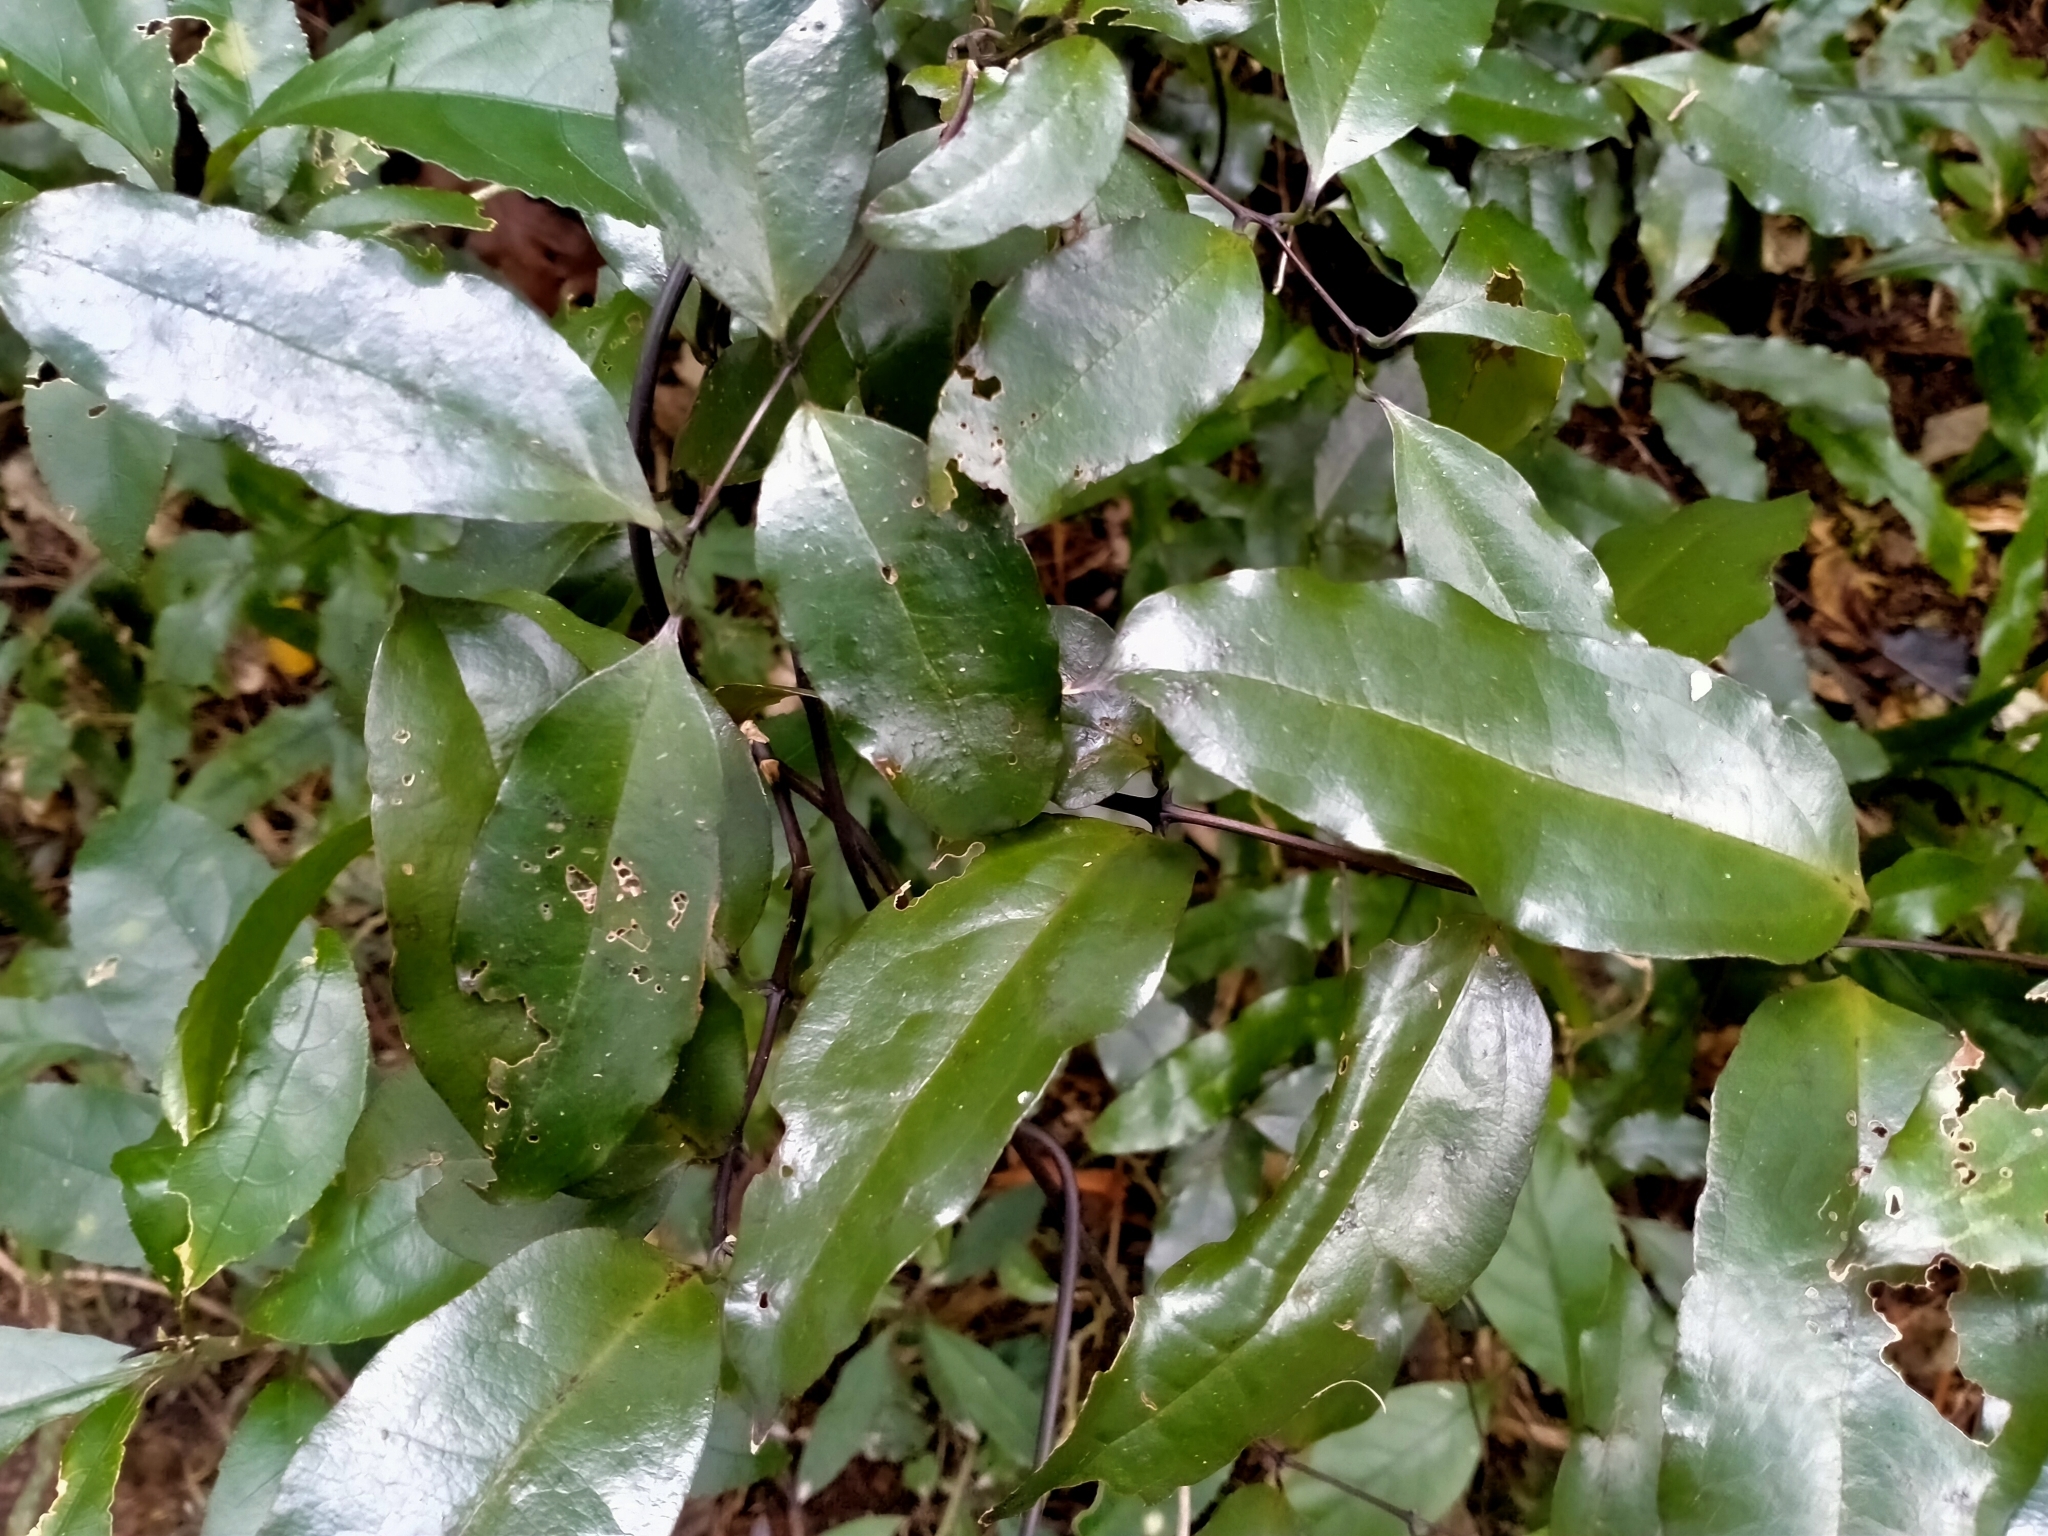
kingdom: Plantae
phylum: Tracheophyta
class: Liliopsida
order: Liliales
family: Ripogonaceae
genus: Ripogonum
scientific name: Ripogonum scandens
